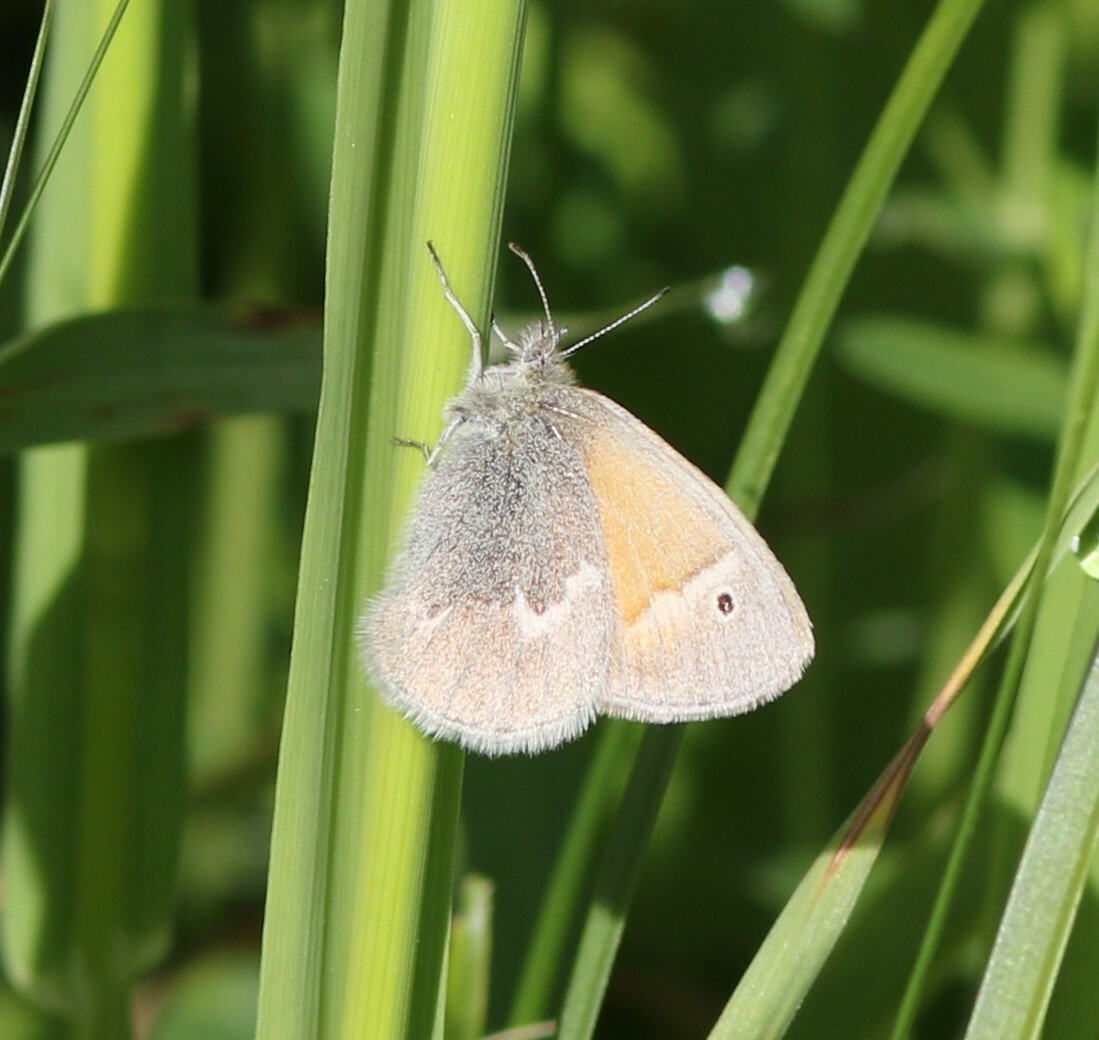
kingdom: Animalia
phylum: Arthropoda
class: Insecta
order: Lepidoptera
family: Nymphalidae
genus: Coenonympha
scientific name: Coenonympha california
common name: Common ringlet
